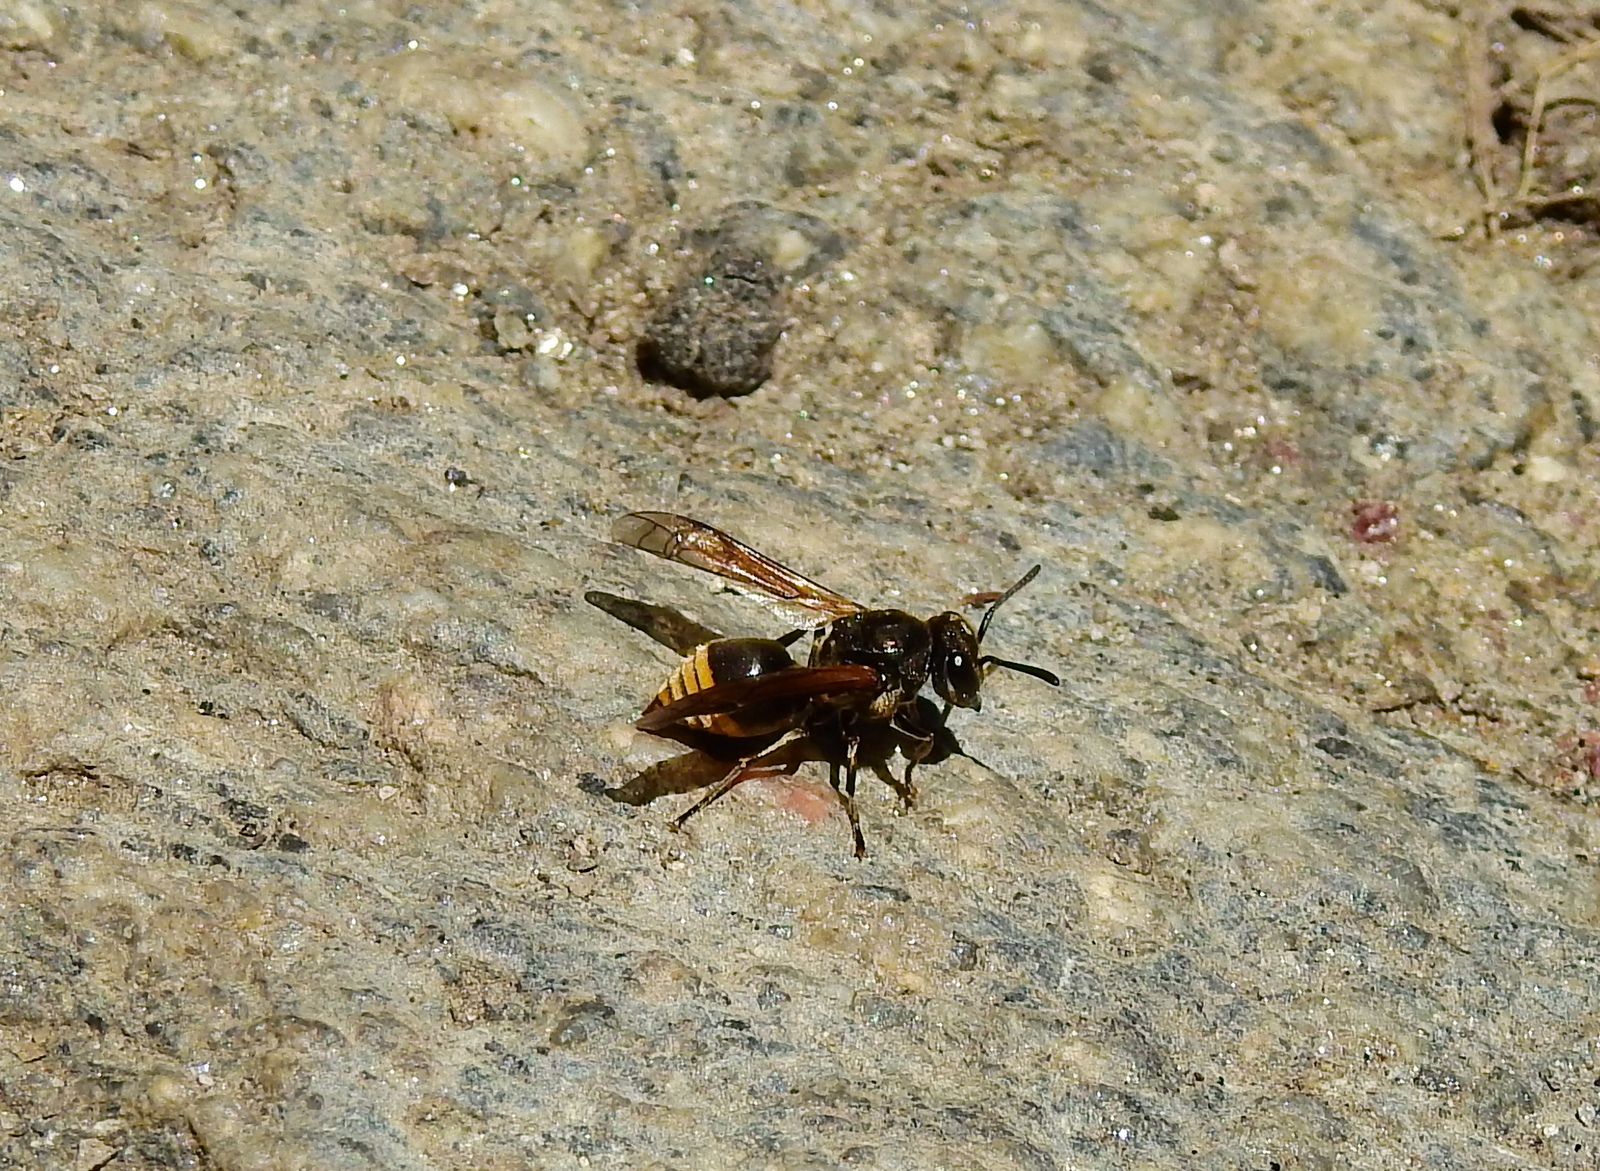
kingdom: Animalia
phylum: Arthropoda
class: Insecta
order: Hymenoptera
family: Vespidae
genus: Brachygastra
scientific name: Brachygastra lecheguana
